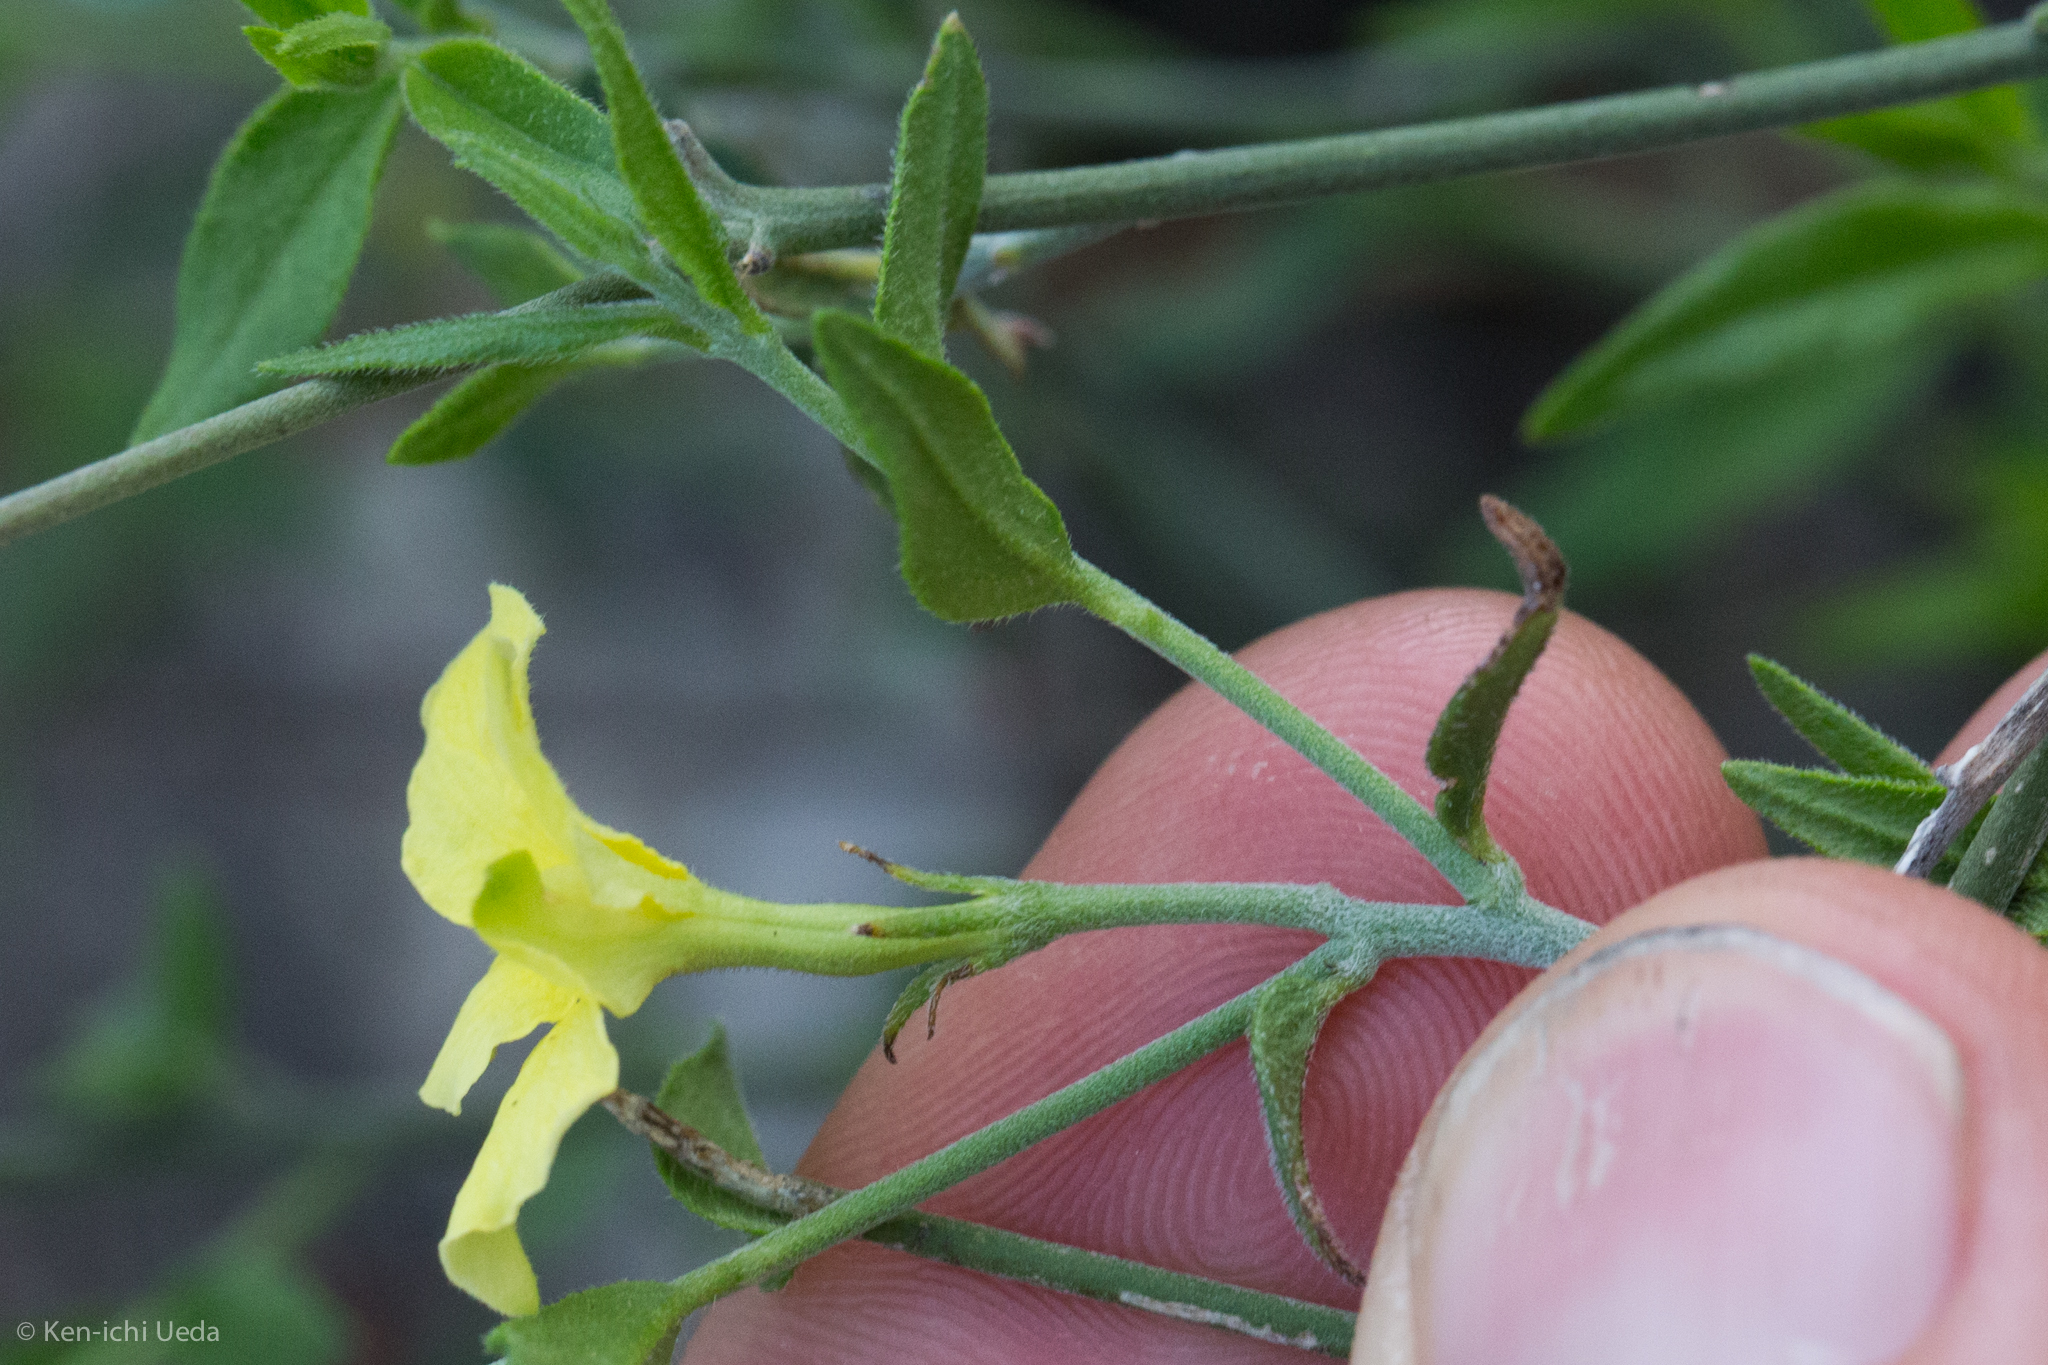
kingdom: Plantae
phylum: Tracheophyta
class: Magnoliopsida
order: Gentianales
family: Apocynaceae
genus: Haplophyton
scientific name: Haplophyton crooksii
